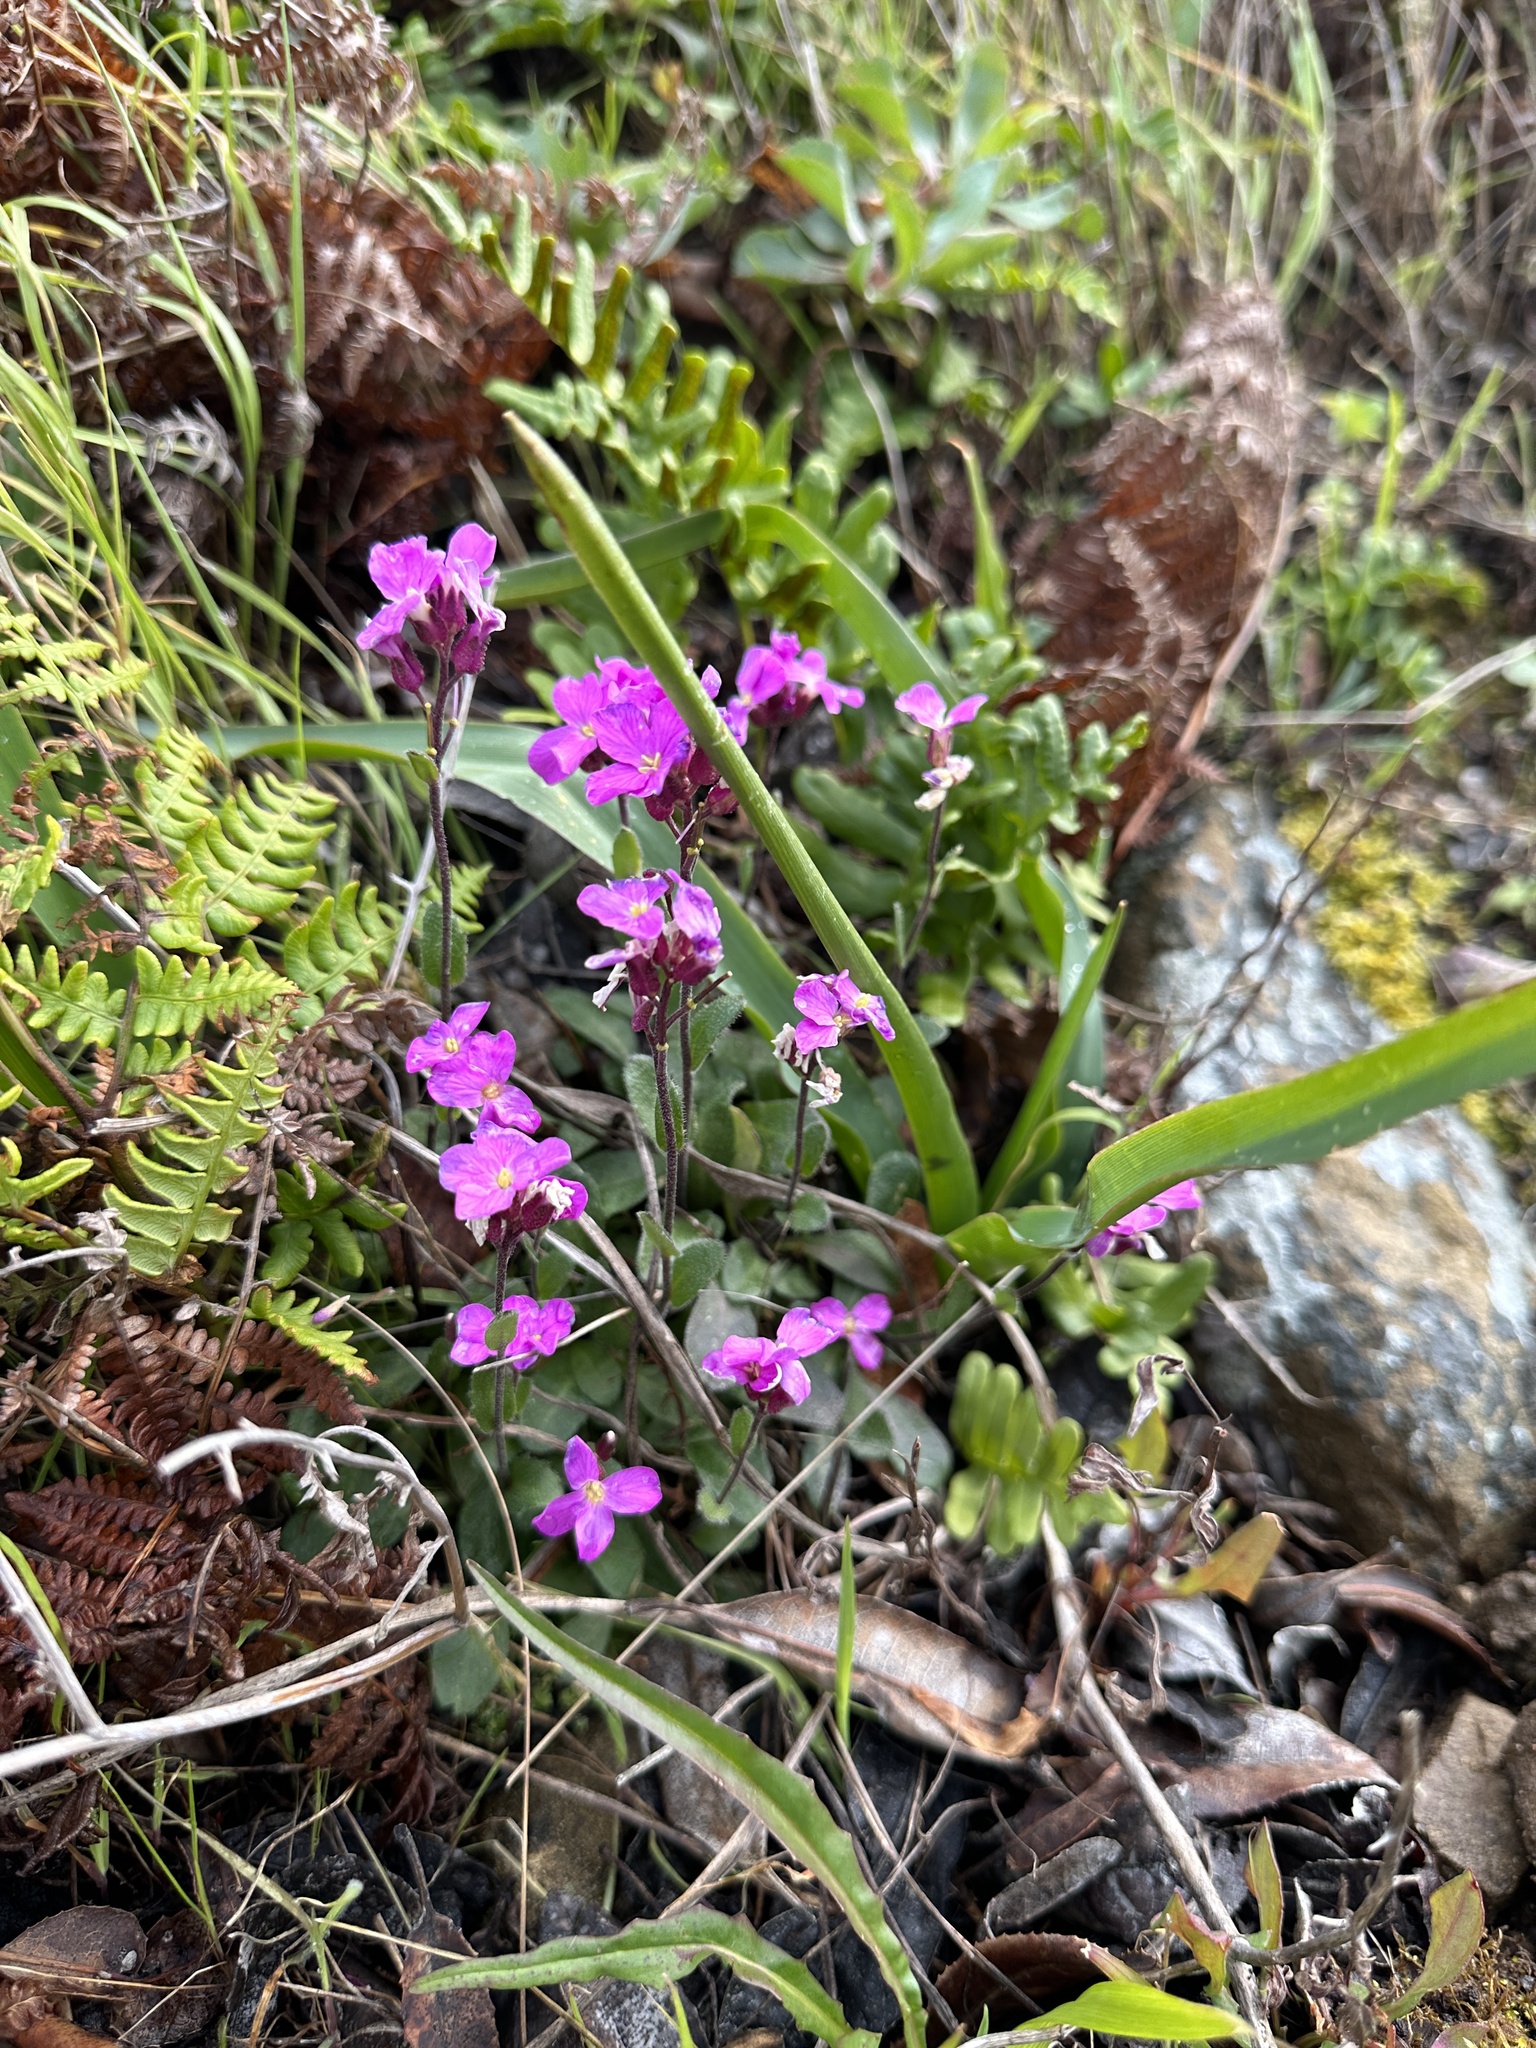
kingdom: Plantae
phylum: Tracheophyta
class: Magnoliopsida
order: Brassicales
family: Brassicaceae
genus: Arabis
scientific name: Arabis blepharophylla
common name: Rose rockcress
